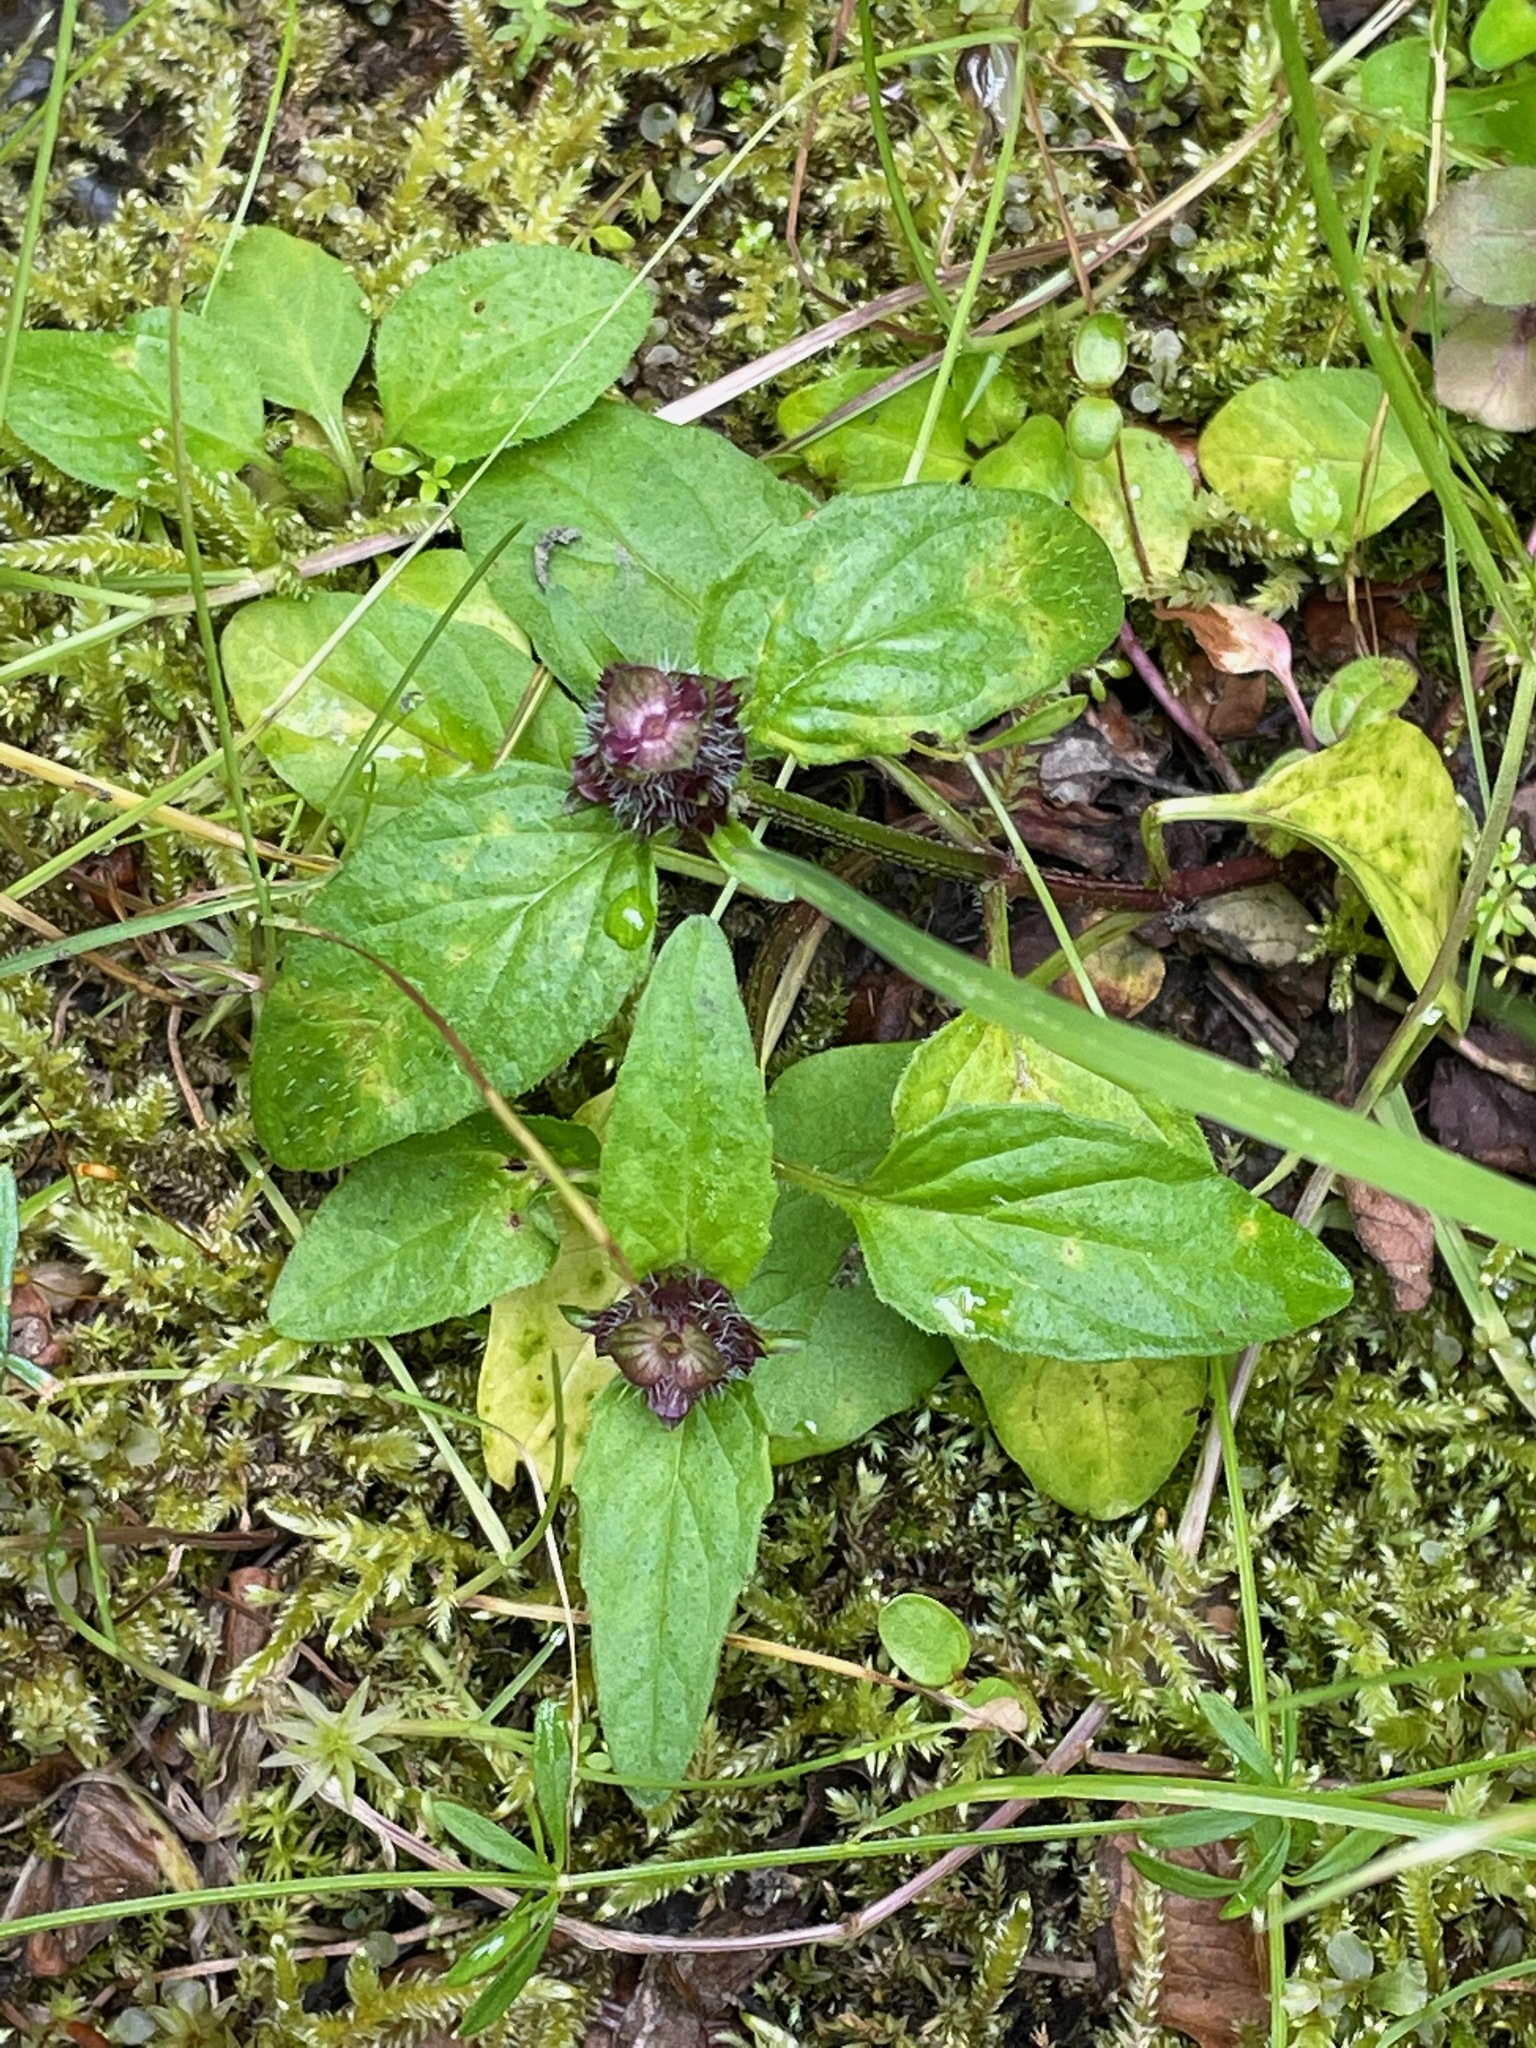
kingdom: Plantae
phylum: Tracheophyta
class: Magnoliopsida
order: Lamiales
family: Lamiaceae
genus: Prunella
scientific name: Prunella vulgaris
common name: Heal-all
